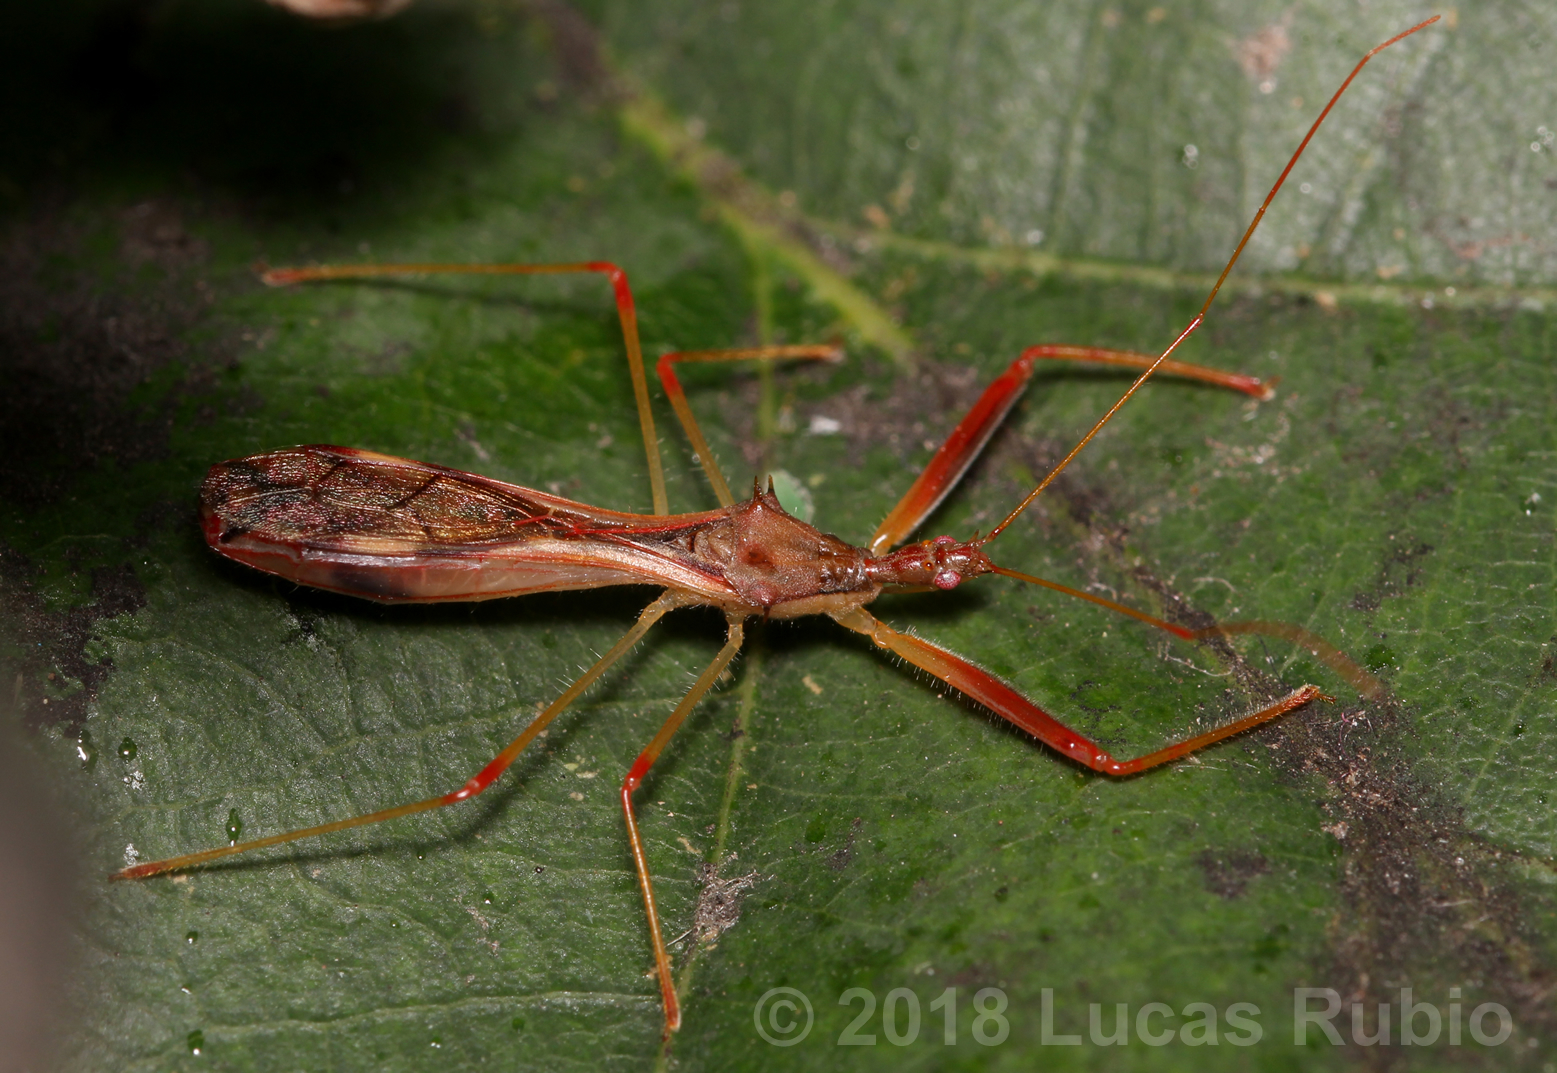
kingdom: Animalia
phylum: Arthropoda
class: Insecta
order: Hemiptera
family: Reduviidae
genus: Debilia
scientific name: Debilia fusciventris
